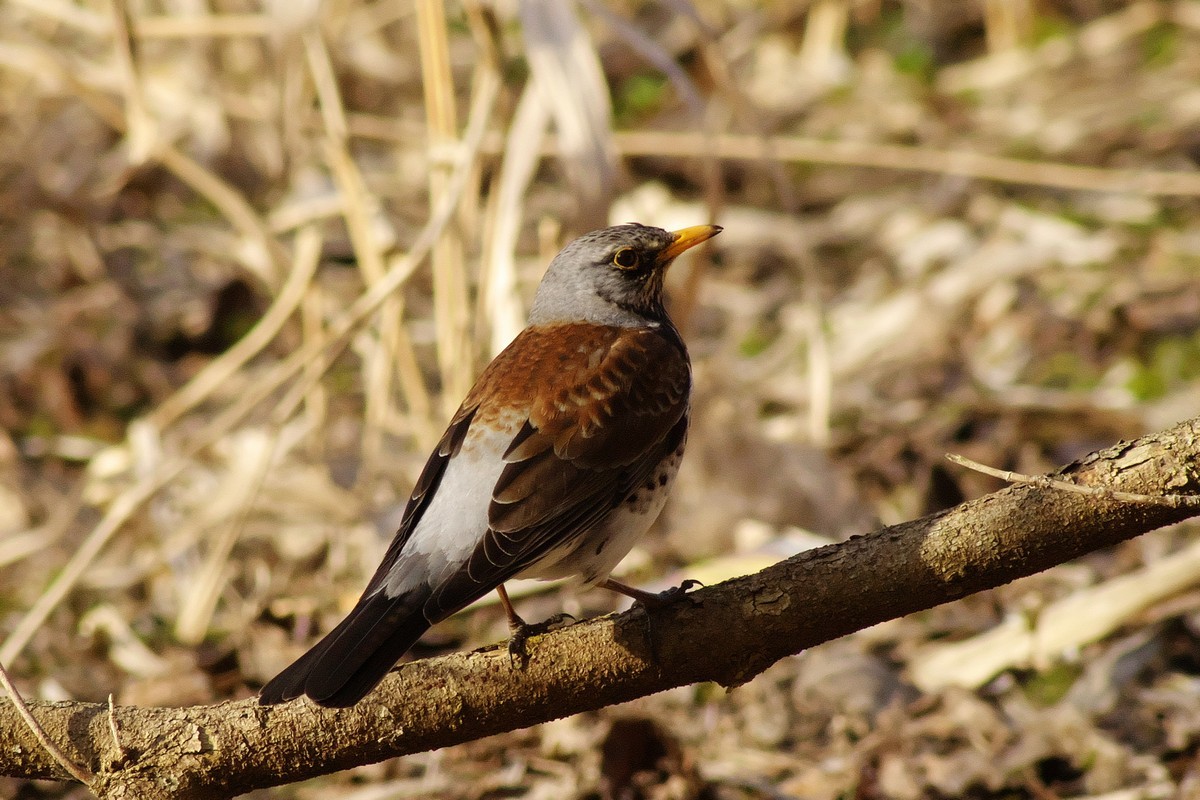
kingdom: Animalia
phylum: Chordata
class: Aves
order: Passeriformes
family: Turdidae
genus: Turdus
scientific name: Turdus pilaris
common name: Fieldfare
